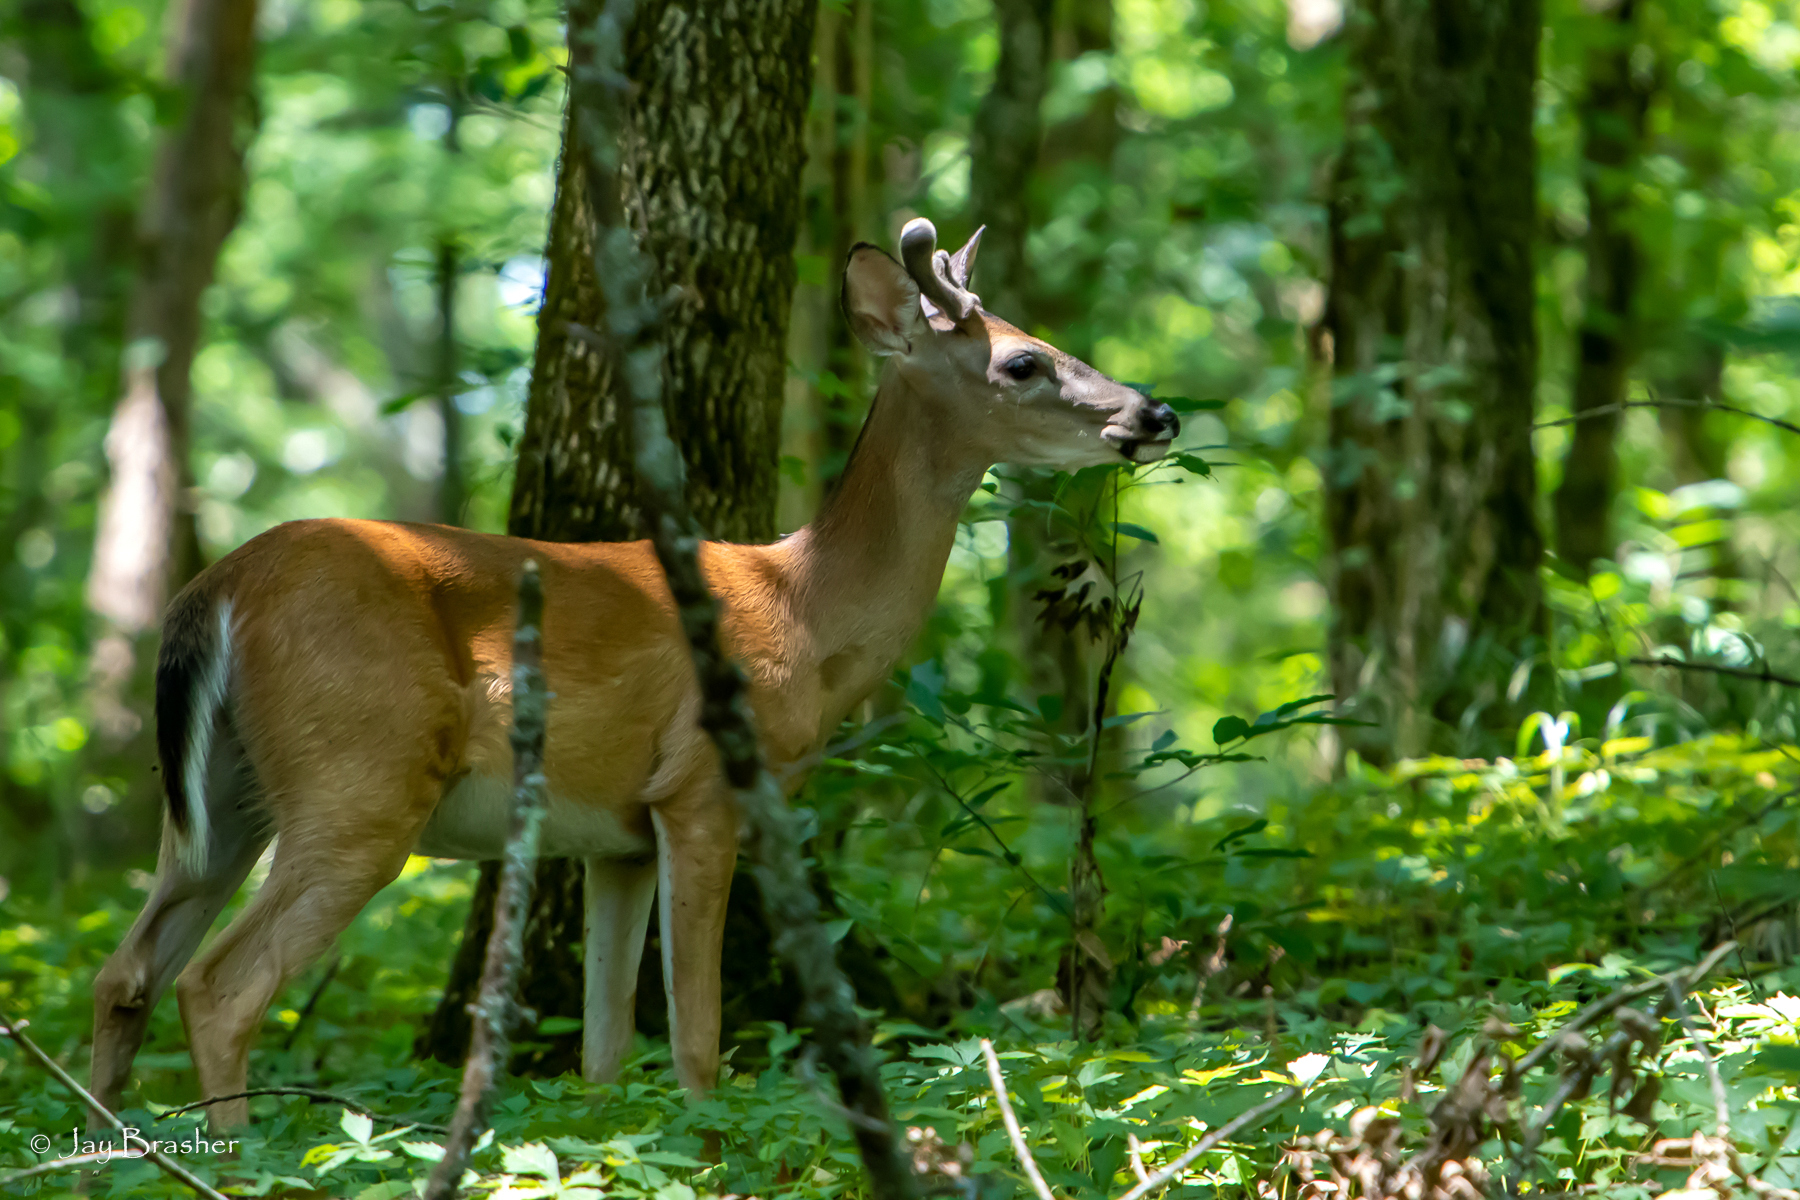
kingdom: Animalia
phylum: Chordata
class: Mammalia
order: Artiodactyla
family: Cervidae
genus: Odocoileus
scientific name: Odocoileus virginianus
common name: White-tailed deer
